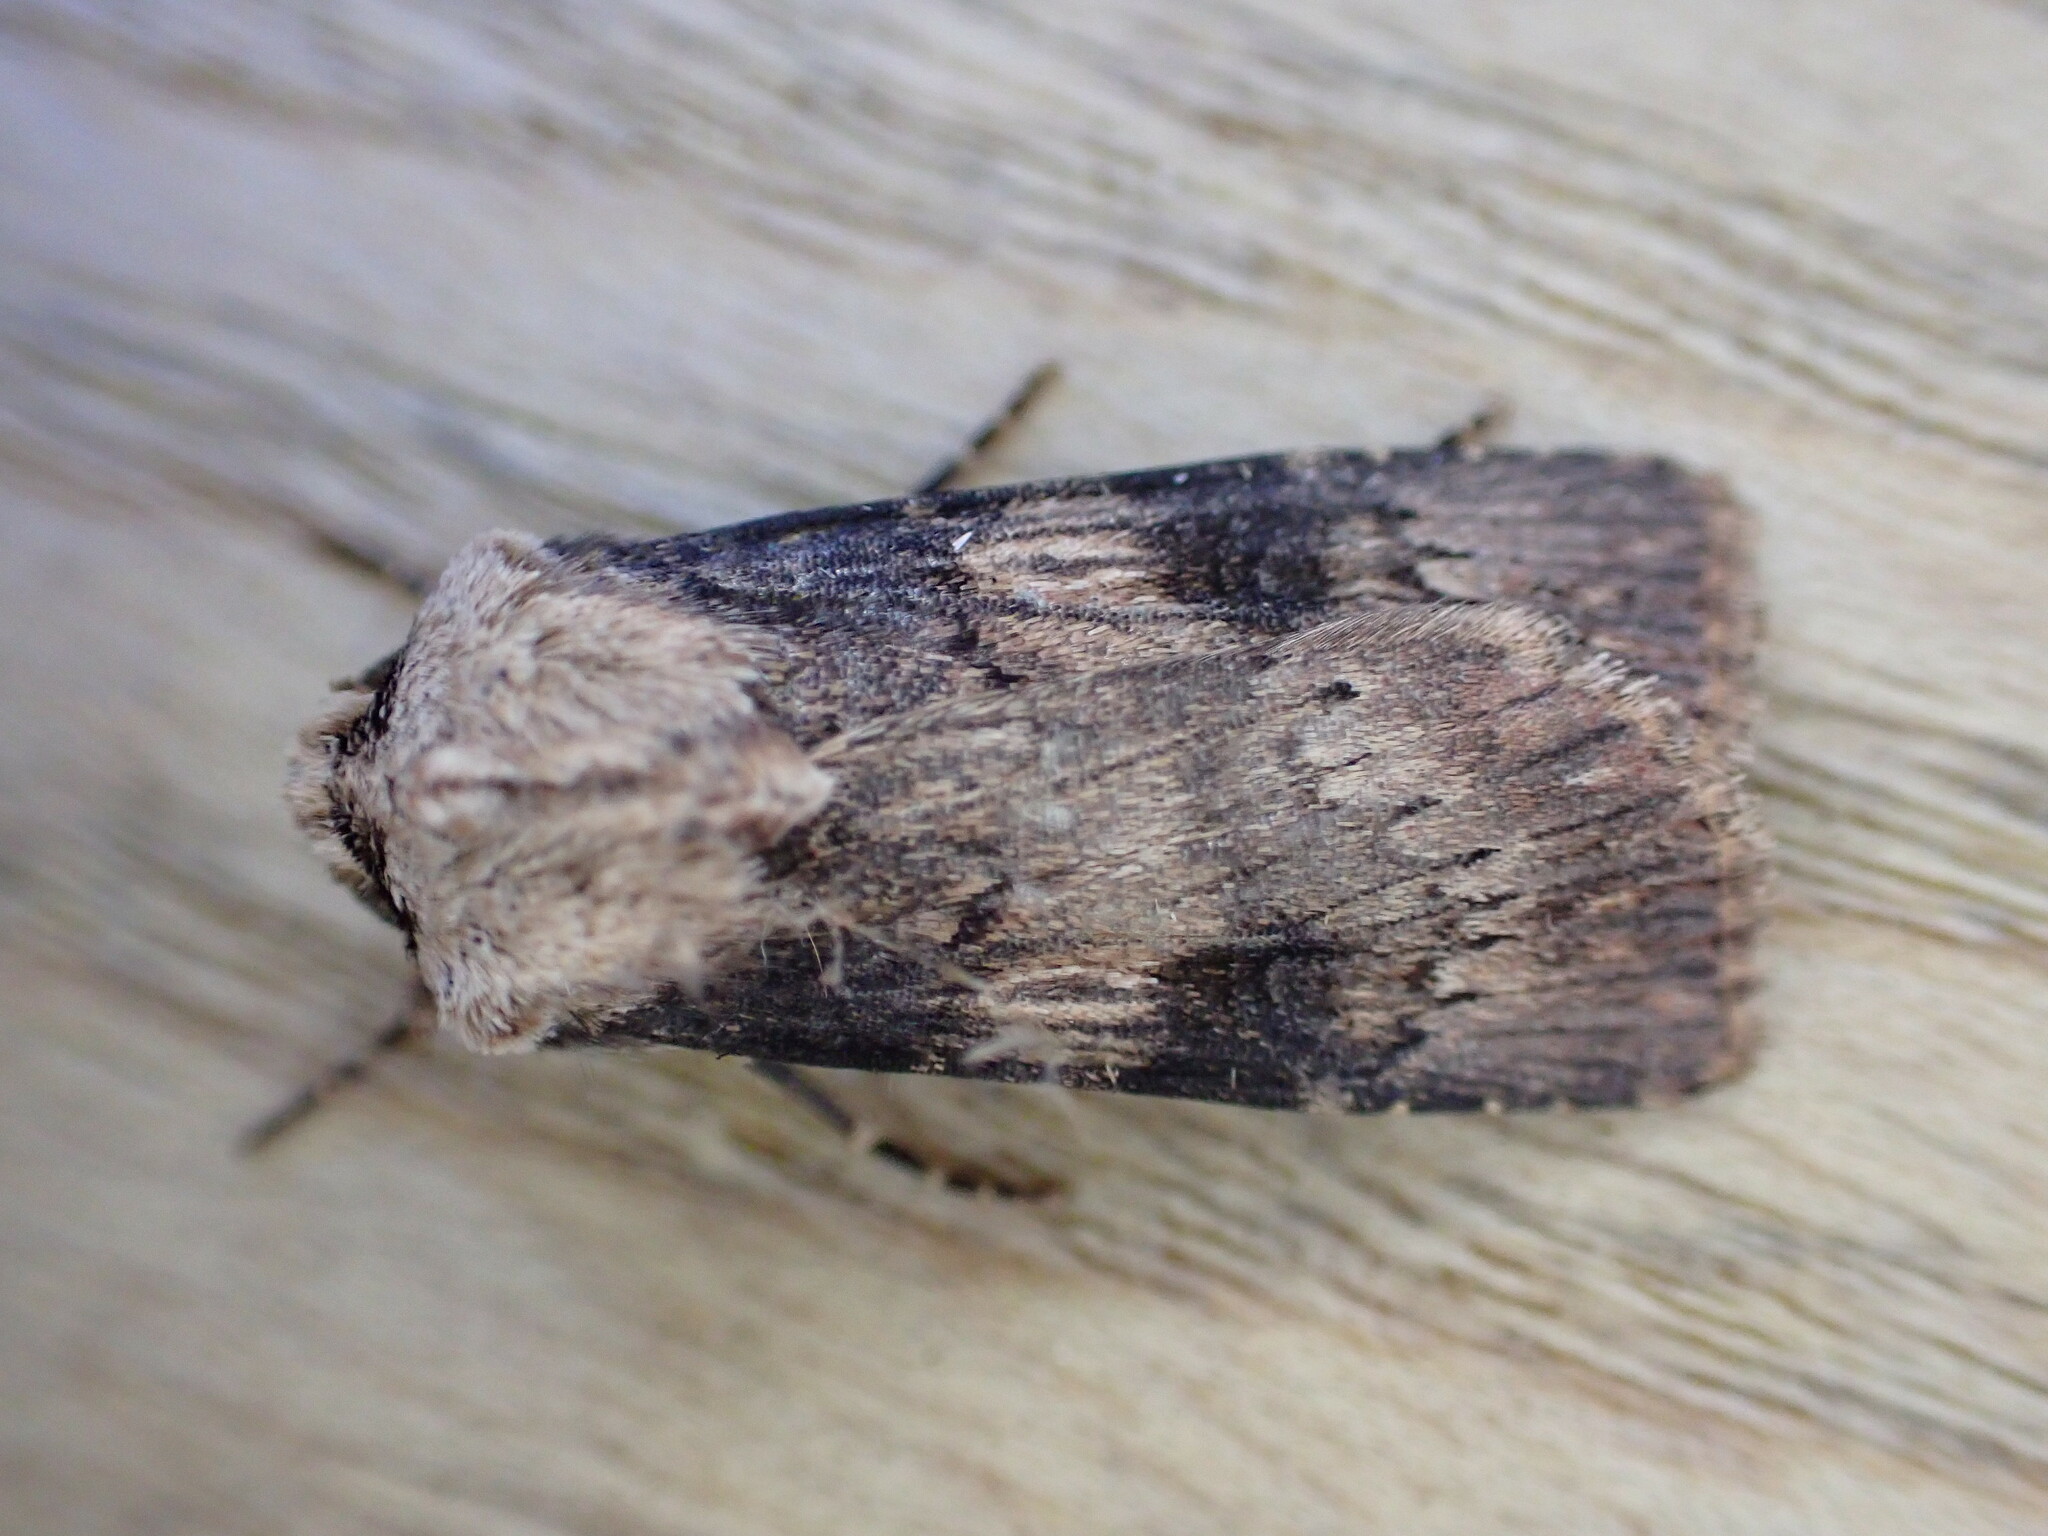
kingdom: Animalia
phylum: Arthropoda
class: Insecta
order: Lepidoptera
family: Noctuidae
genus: Agrotis
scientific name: Agrotis puta
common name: Shuttle-shaped dart
